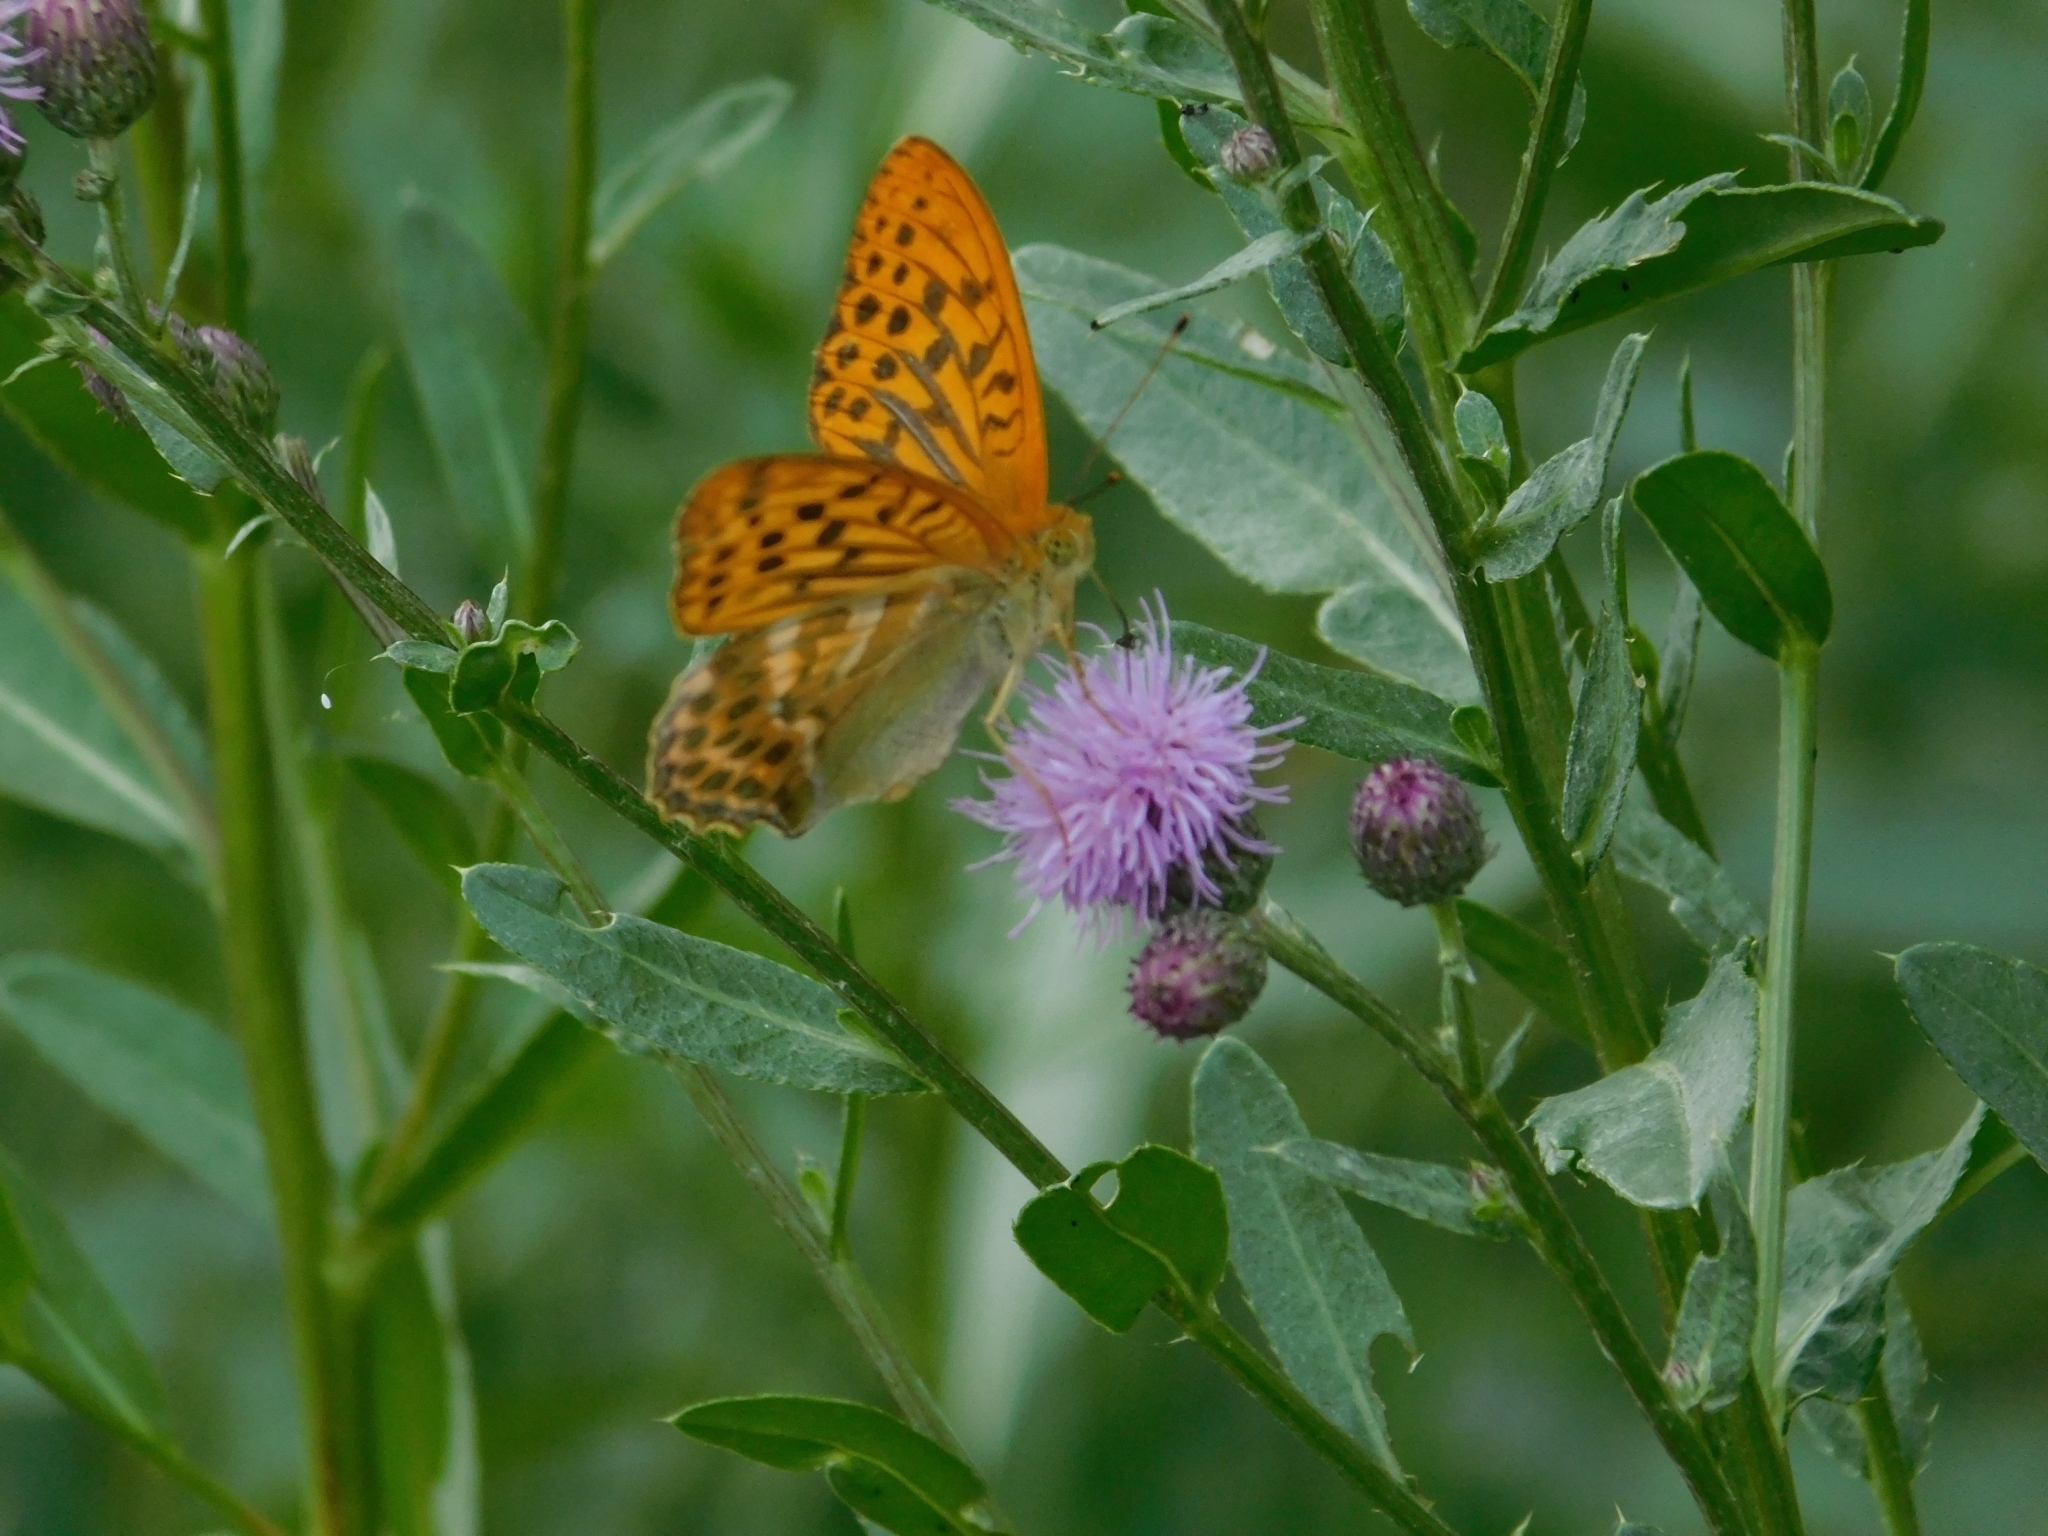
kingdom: Animalia
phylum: Arthropoda
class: Insecta
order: Lepidoptera
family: Nymphalidae
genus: Argynnis
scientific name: Argynnis paphia
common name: Silver-washed fritillary
